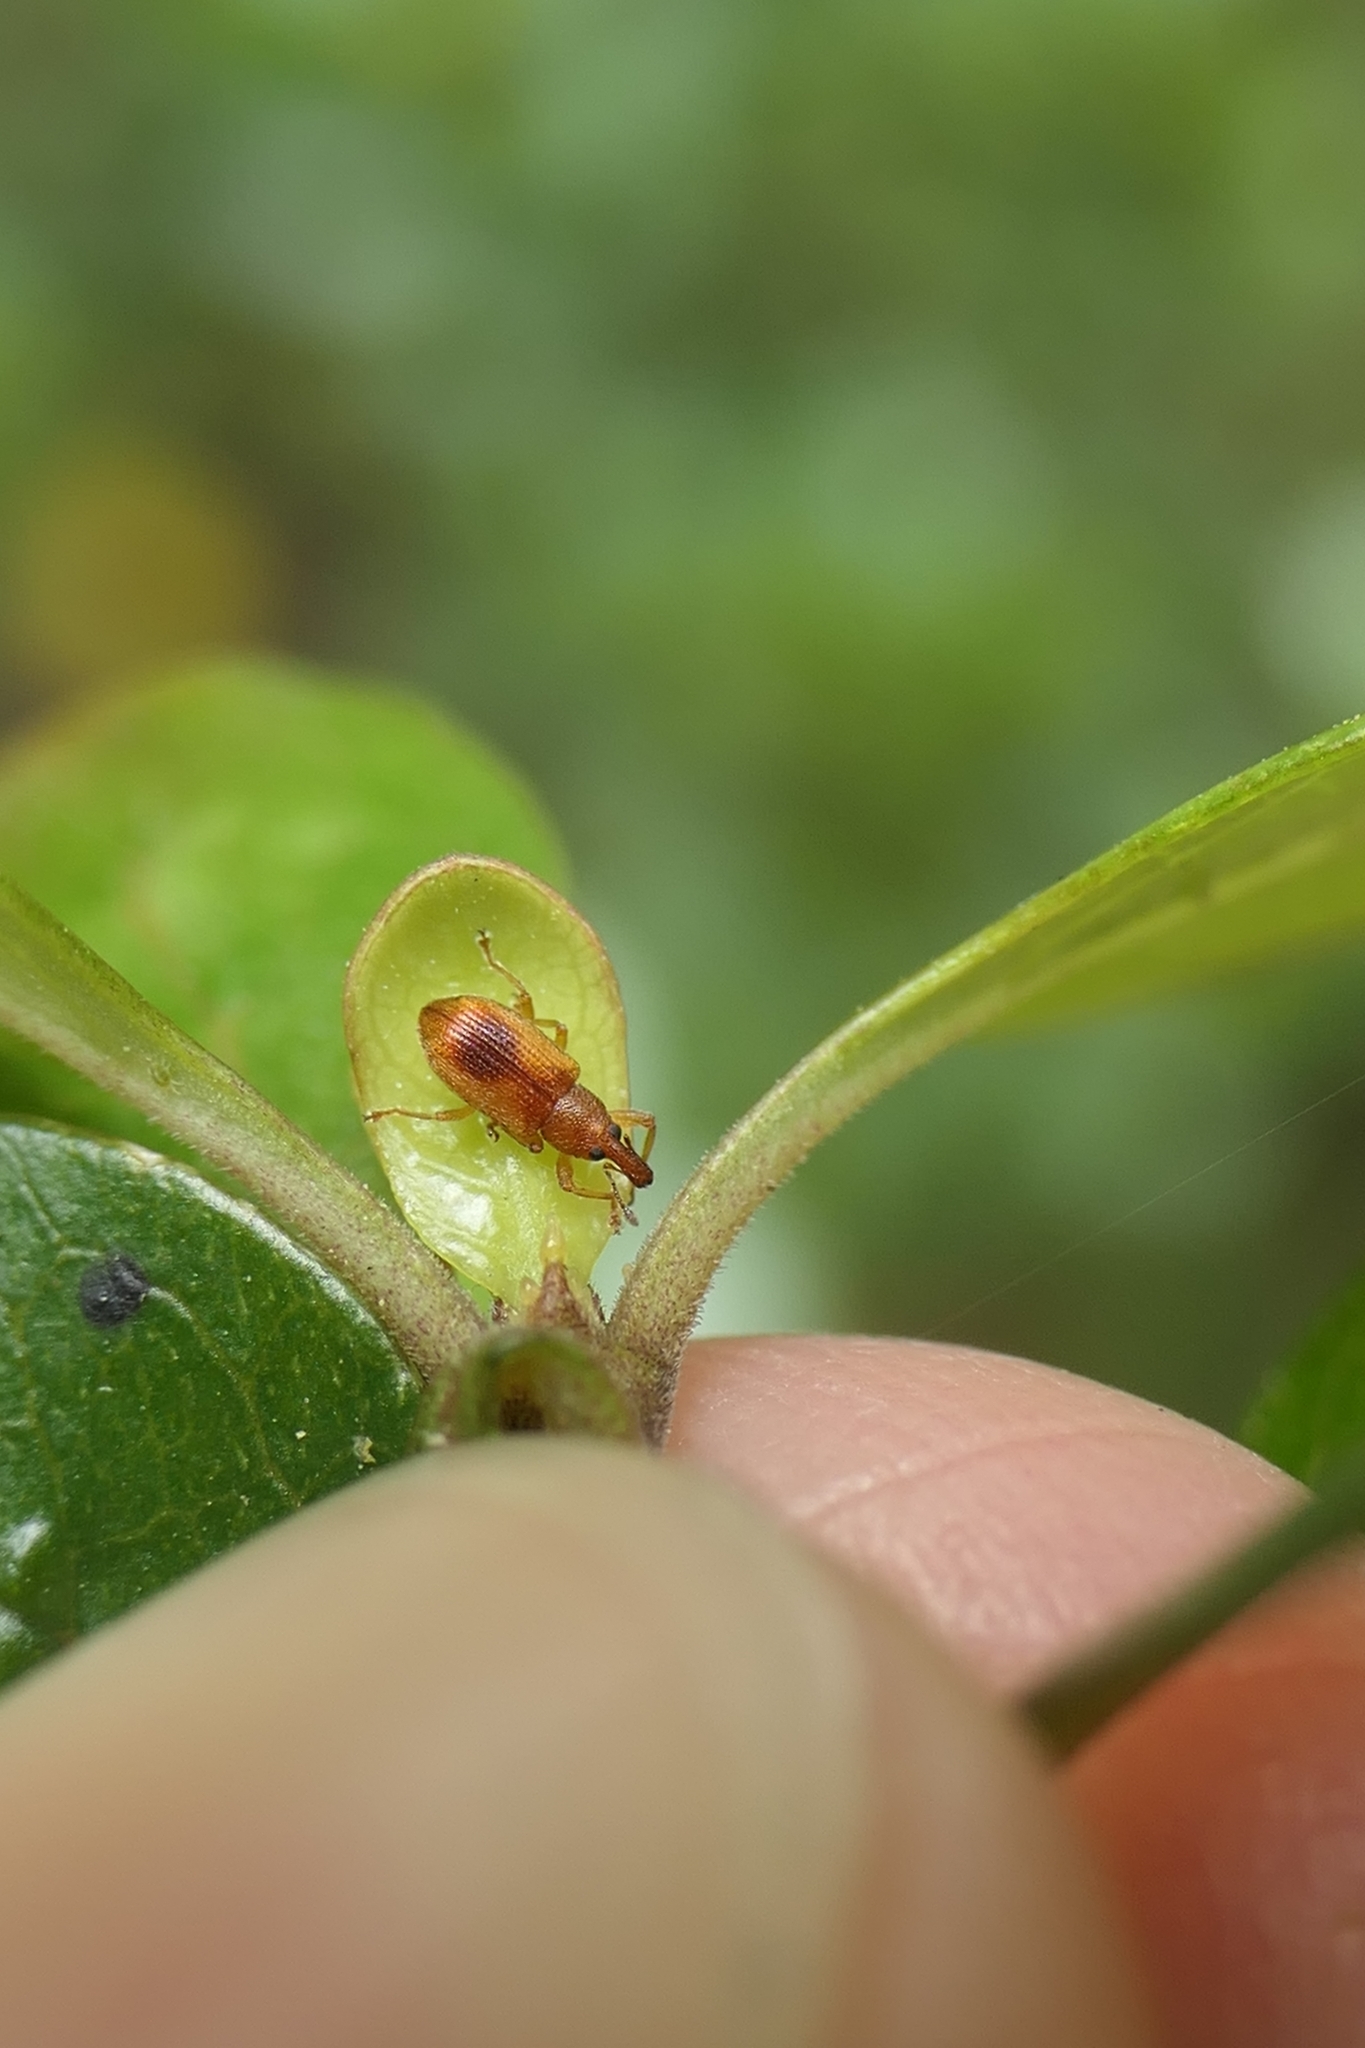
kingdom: Animalia
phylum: Arthropoda
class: Insecta
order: Coleoptera
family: Curculionidae
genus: Neomycta
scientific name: Neomycta pulicaris
